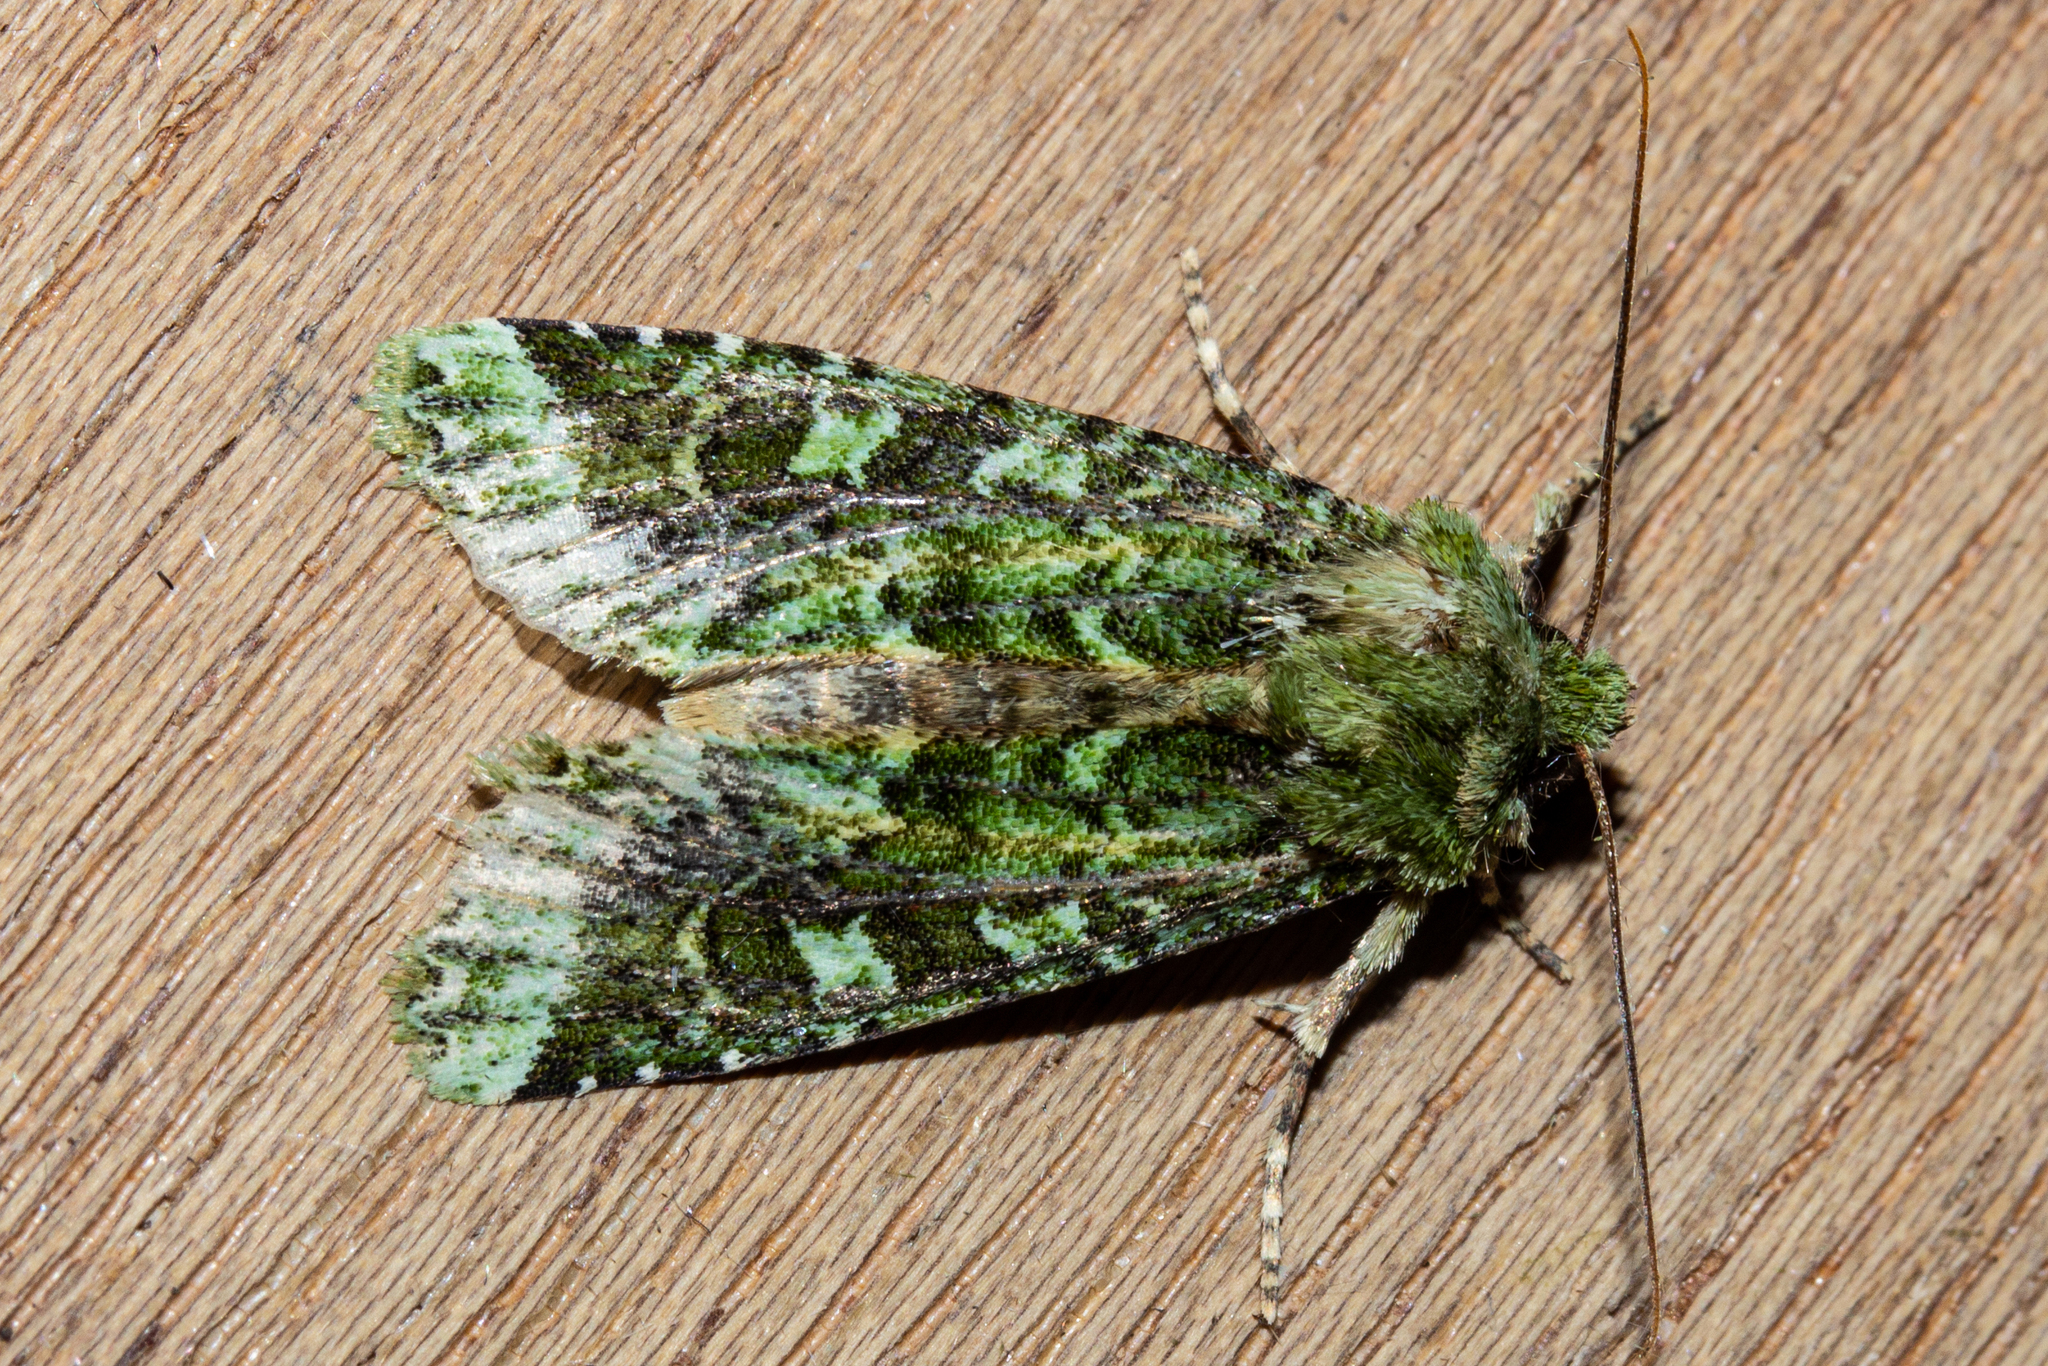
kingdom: Animalia
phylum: Arthropoda
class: Insecta
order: Lepidoptera
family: Noctuidae
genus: Feredayia
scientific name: Feredayia grammosa
